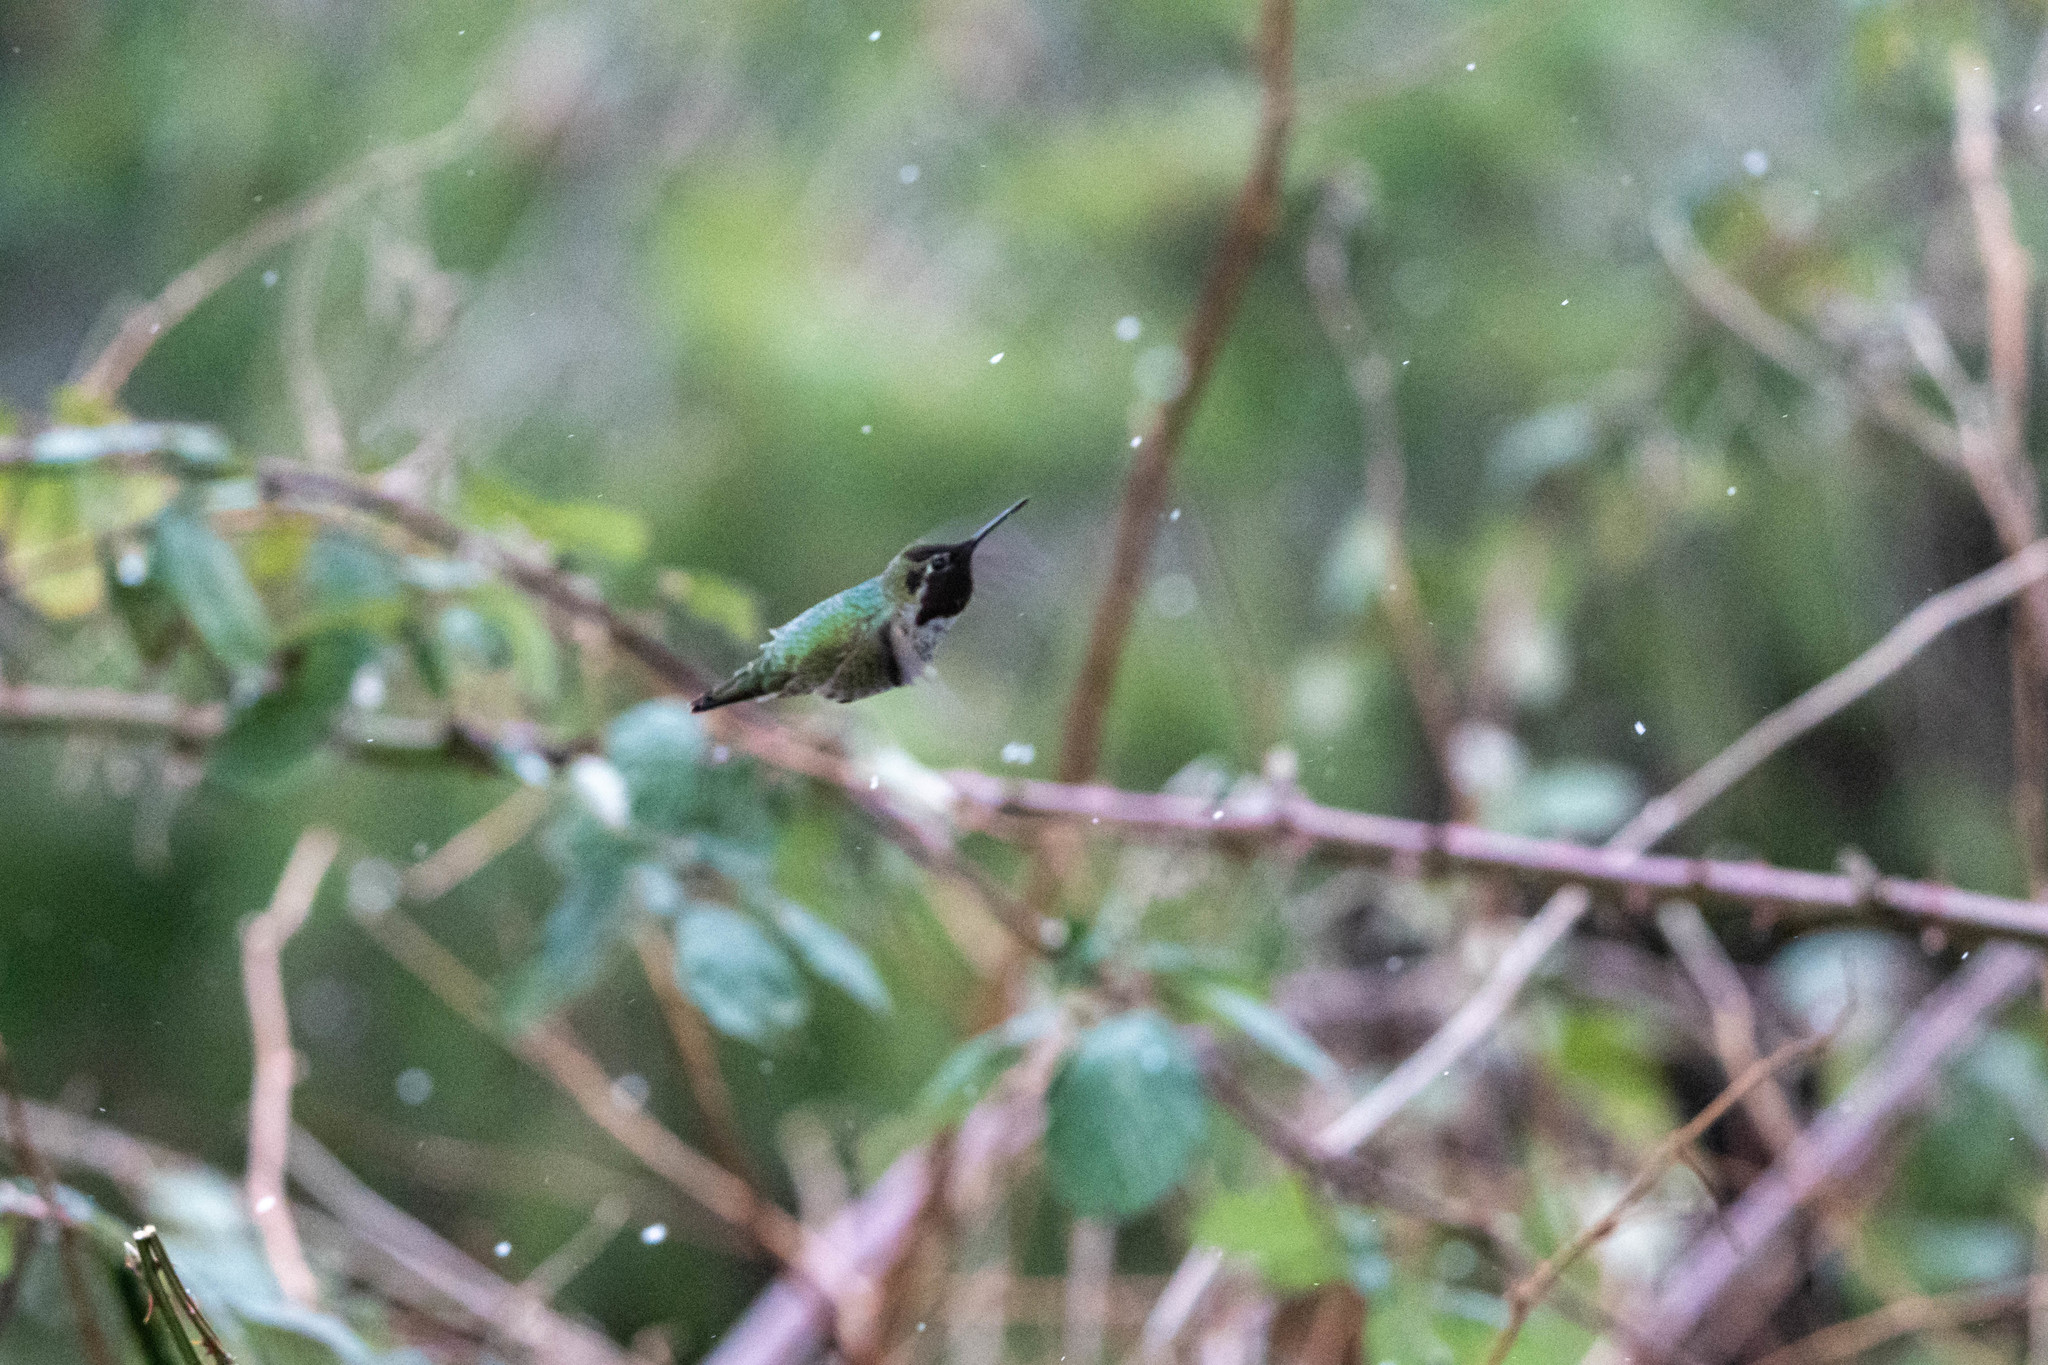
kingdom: Animalia
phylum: Chordata
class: Aves
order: Apodiformes
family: Trochilidae
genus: Calypte
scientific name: Calypte anna
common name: Anna's hummingbird
